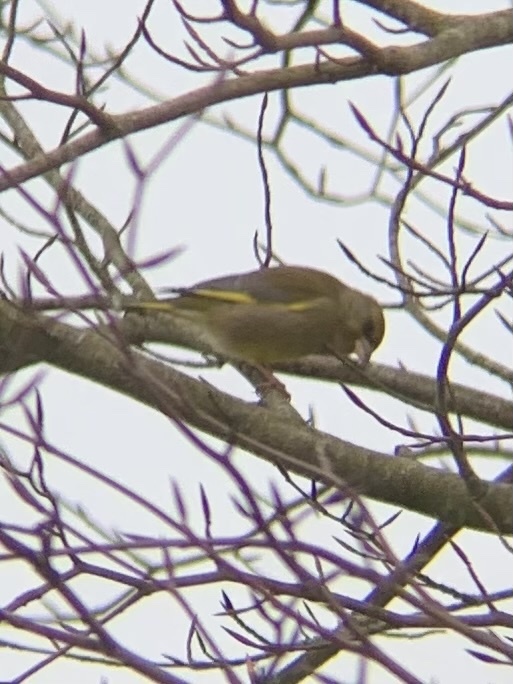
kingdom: Plantae
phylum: Tracheophyta
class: Liliopsida
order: Poales
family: Poaceae
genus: Chloris
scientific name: Chloris chloris
